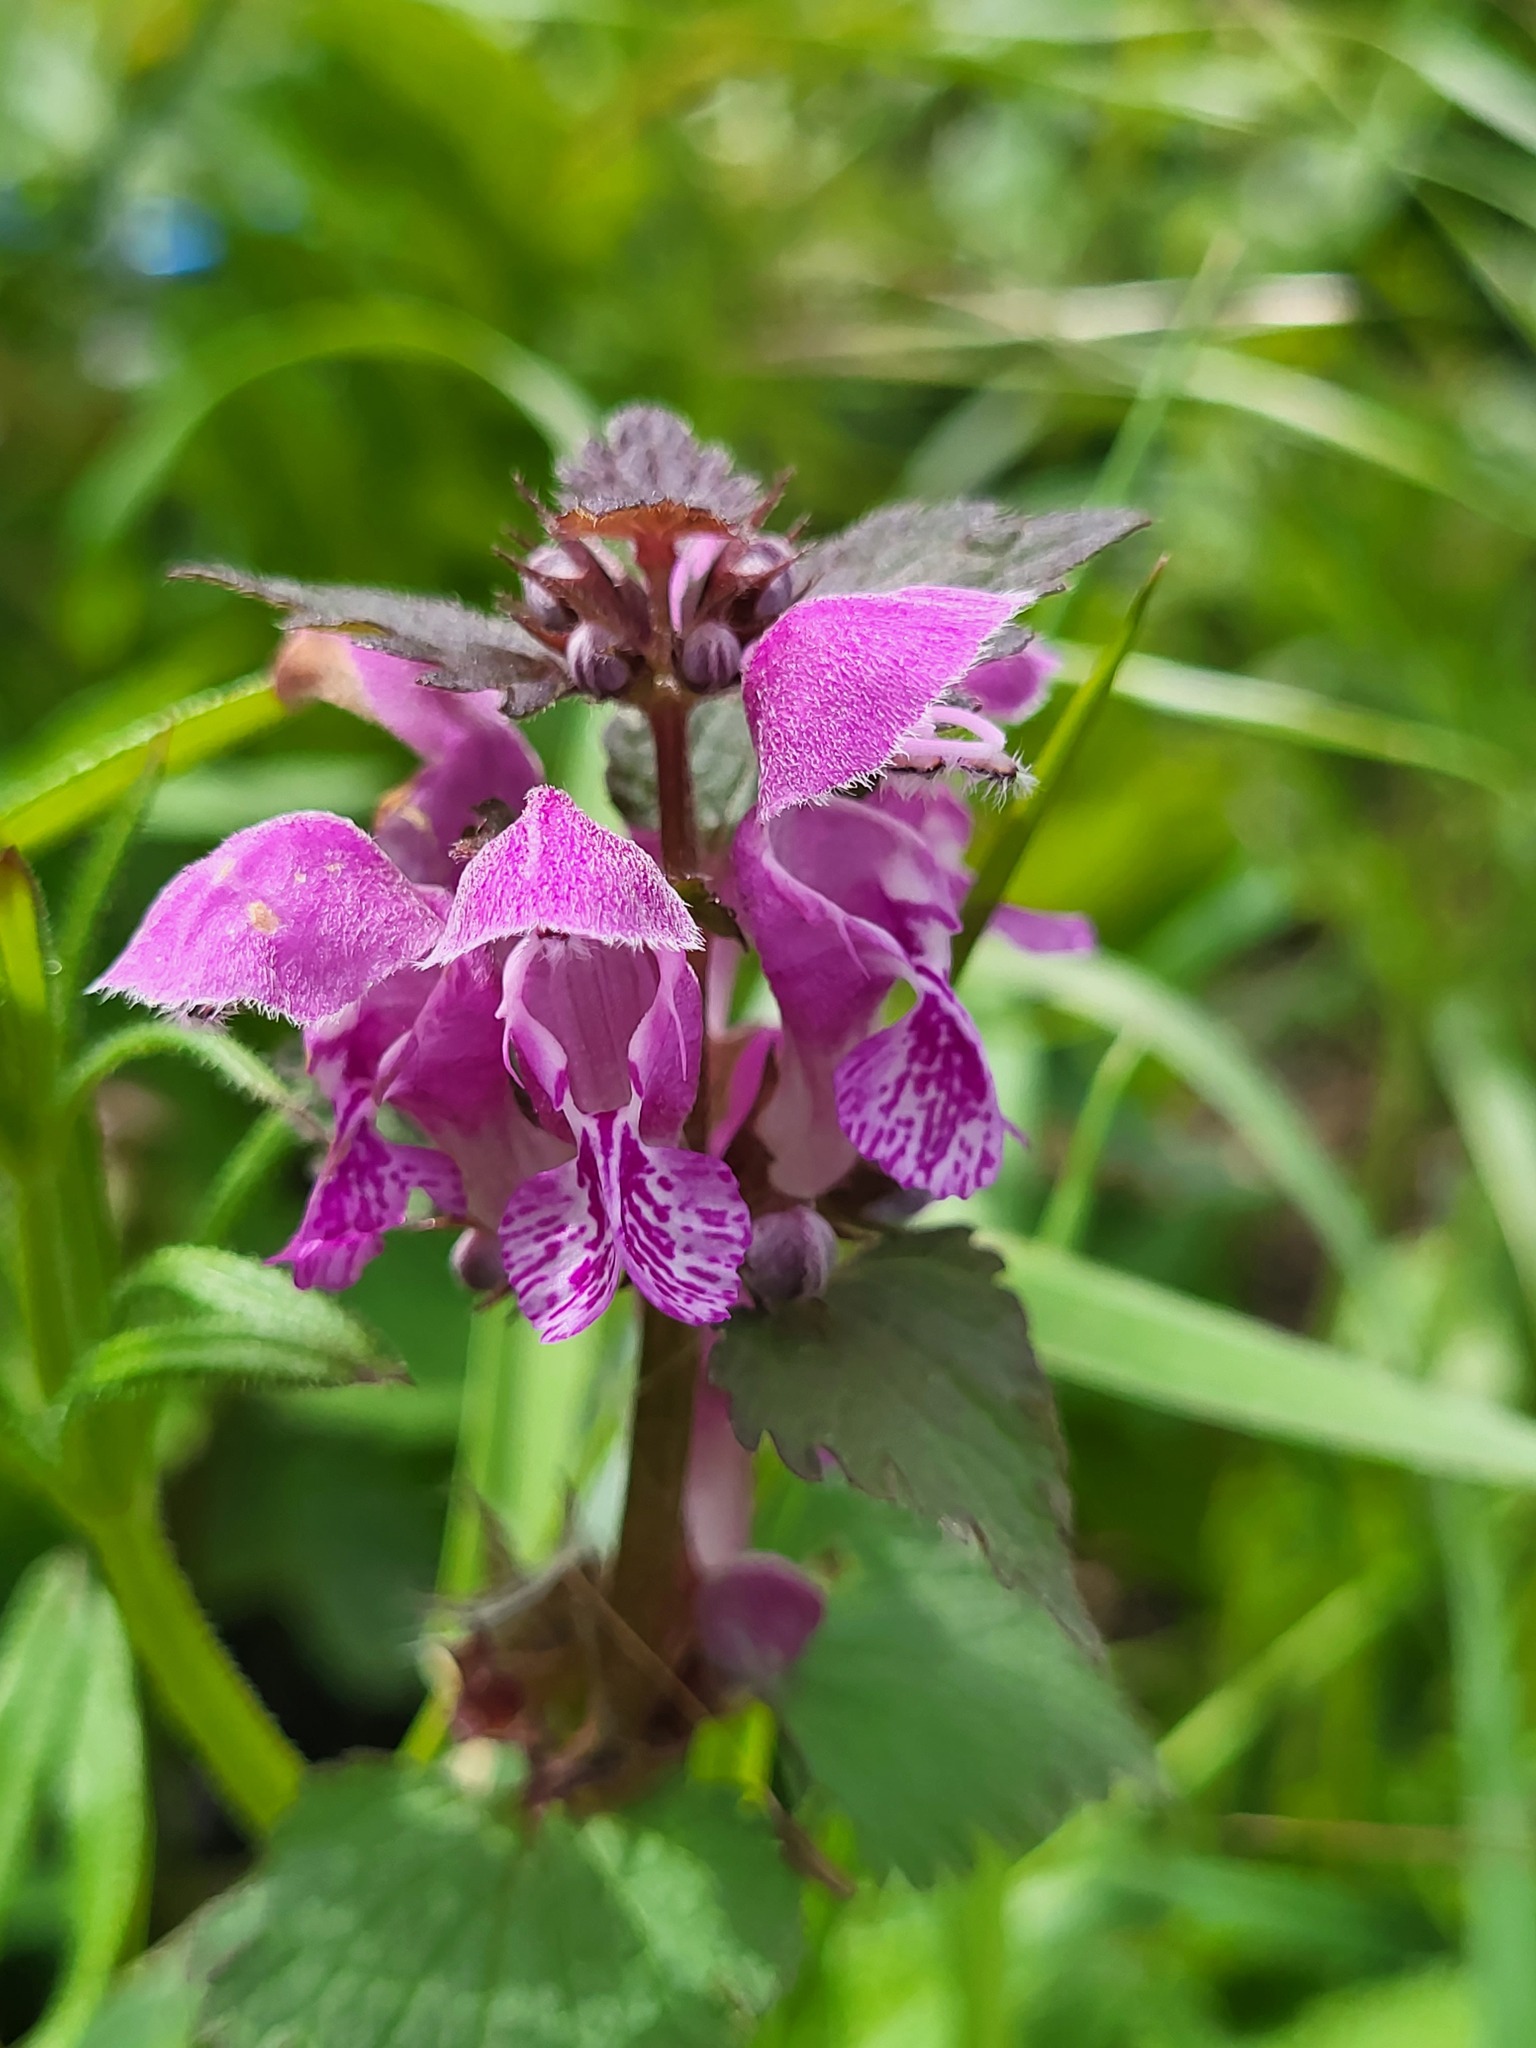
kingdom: Plantae
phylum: Tracheophyta
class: Magnoliopsida
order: Lamiales
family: Lamiaceae
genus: Lamium
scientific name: Lamium maculatum
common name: Spotted dead-nettle
